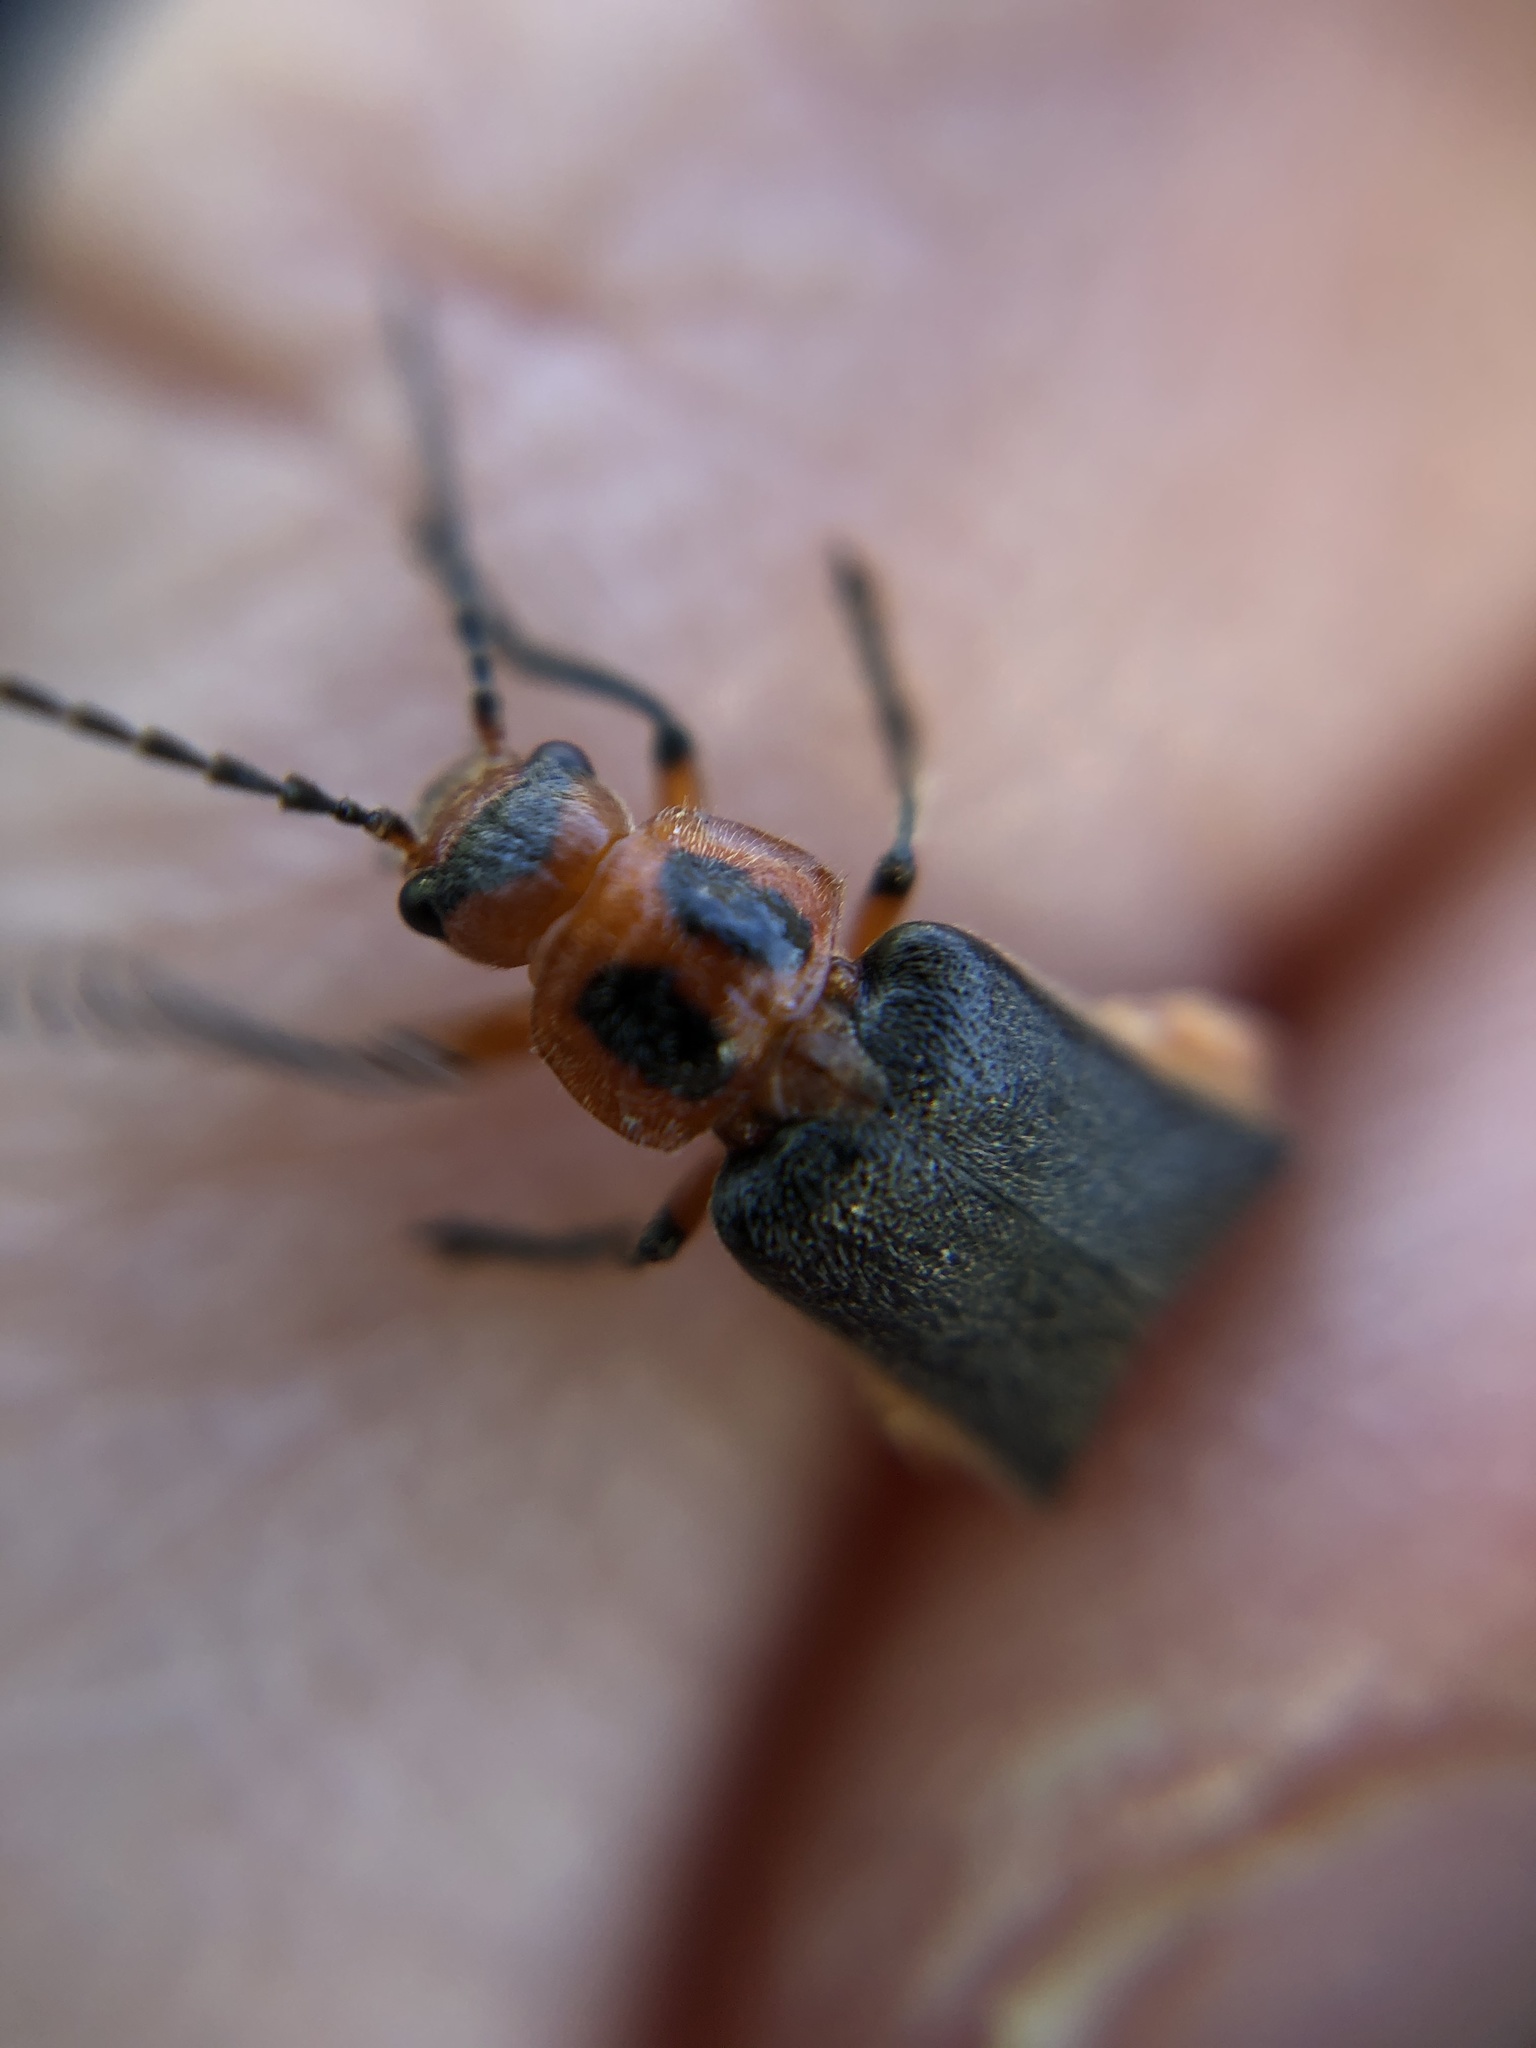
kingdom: Animalia
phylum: Arthropoda
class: Insecta
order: Coleoptera
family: Cantharidae
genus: Atalantycha
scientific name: Atalantycha bilineata
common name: Two-lined leatherwing
